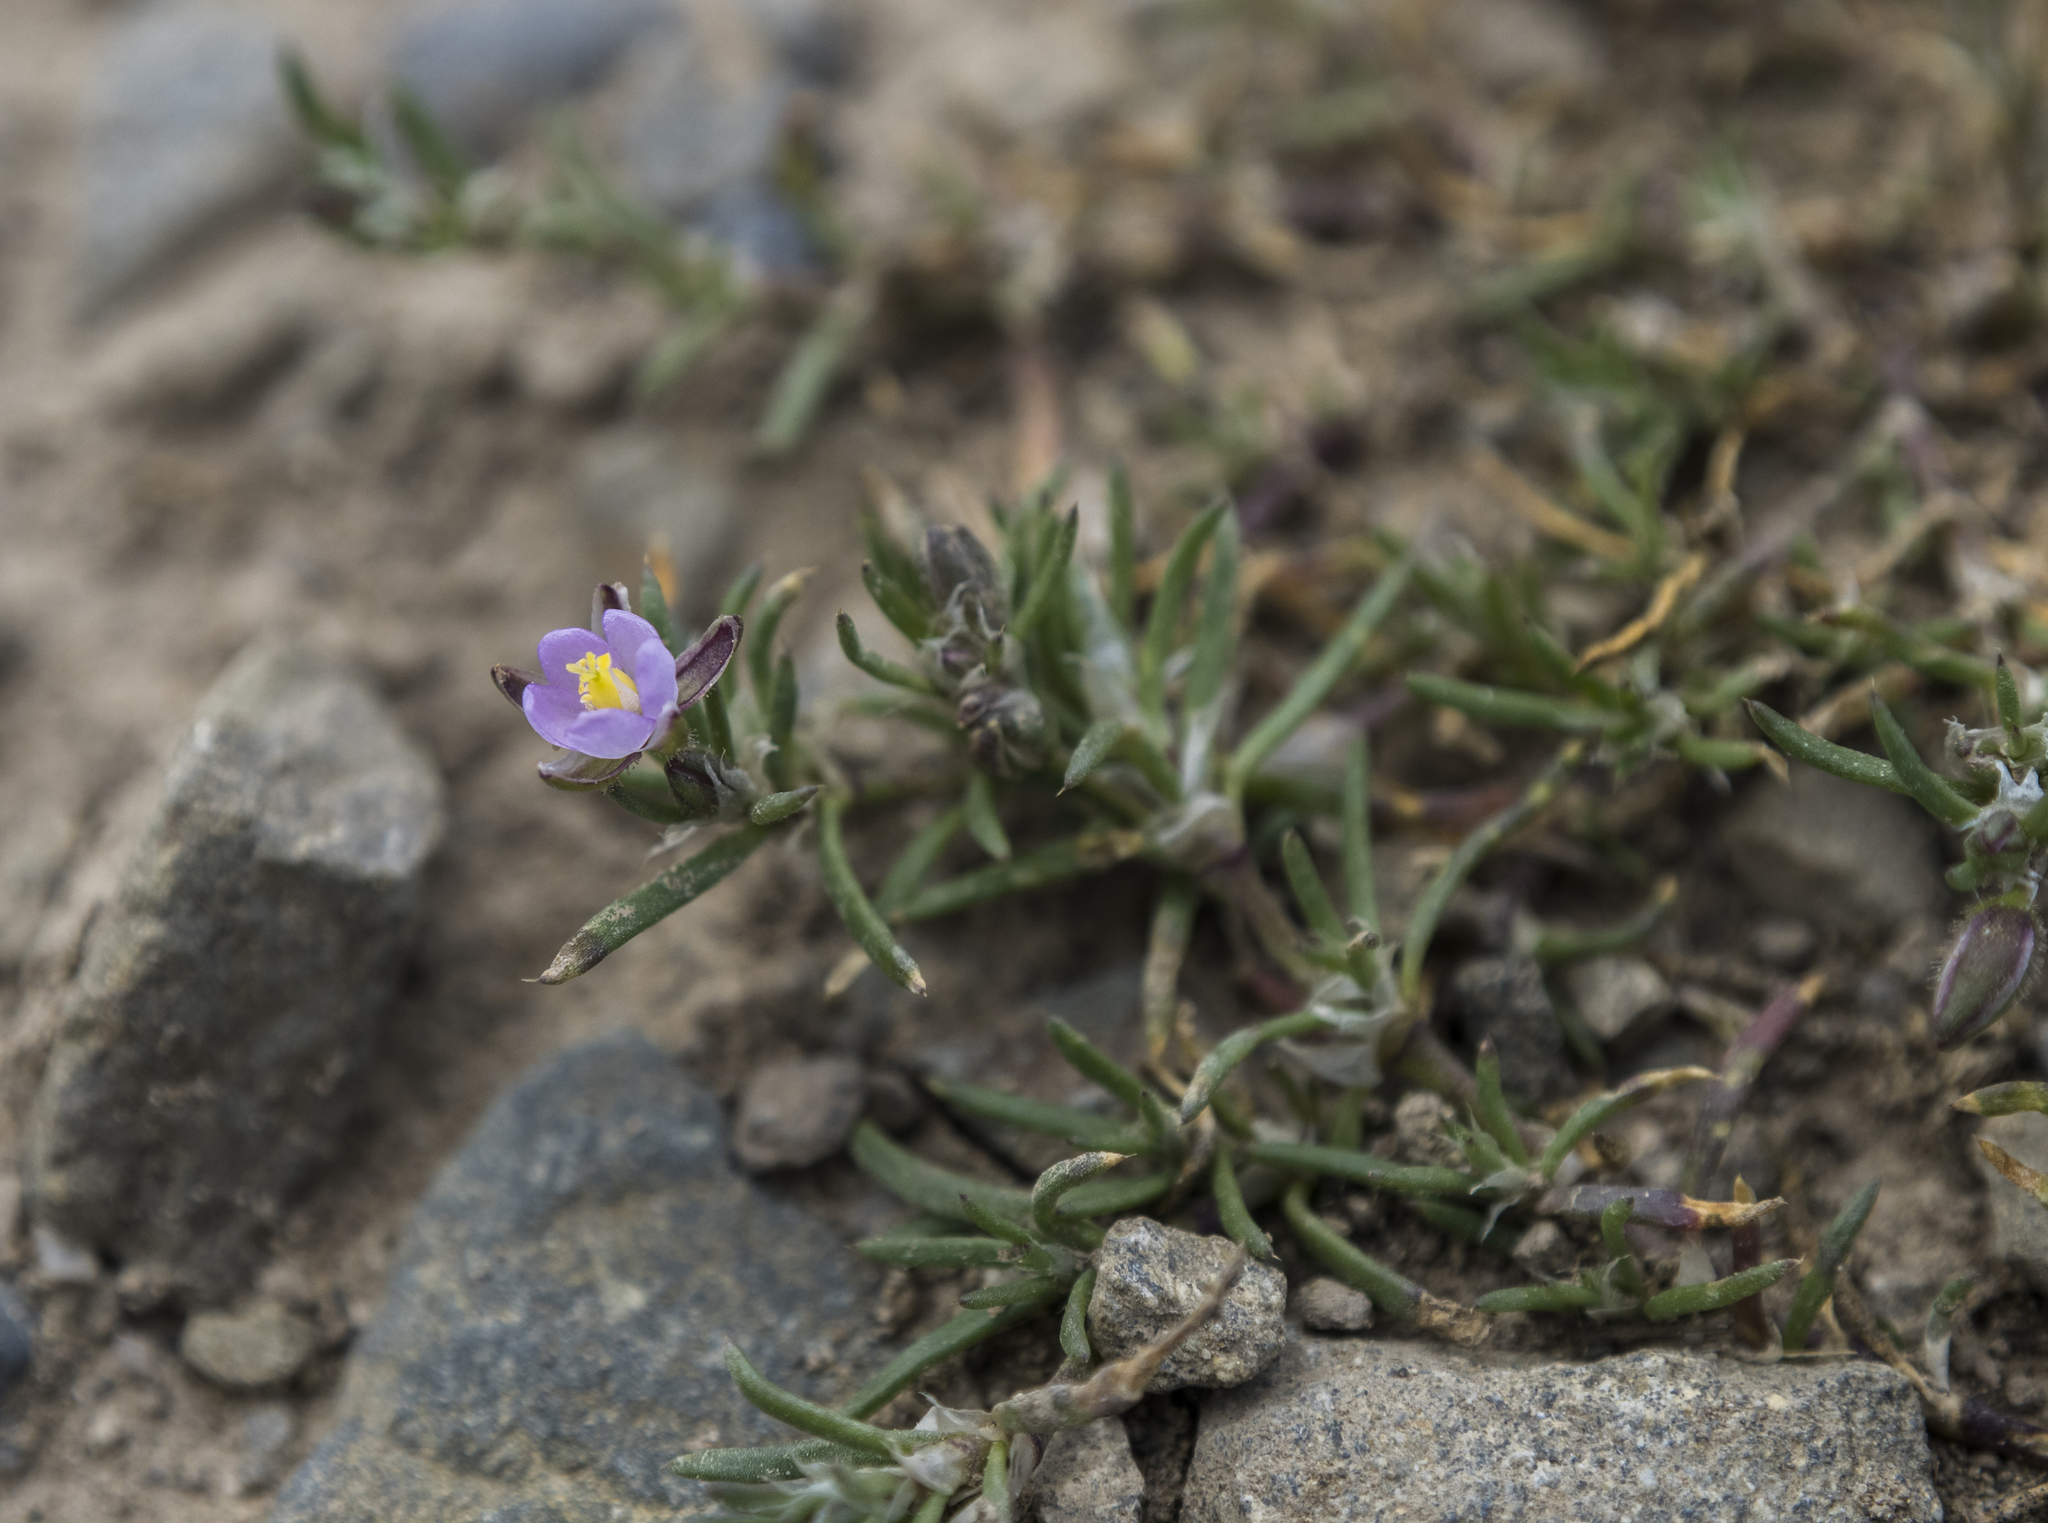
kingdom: Plantae
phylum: Tracheophyta
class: Magnoliopsida
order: Caryophyllales
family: Caryophyllaceae
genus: Spergularia
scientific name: Spergularia rubra
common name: Red sand-spurrey
